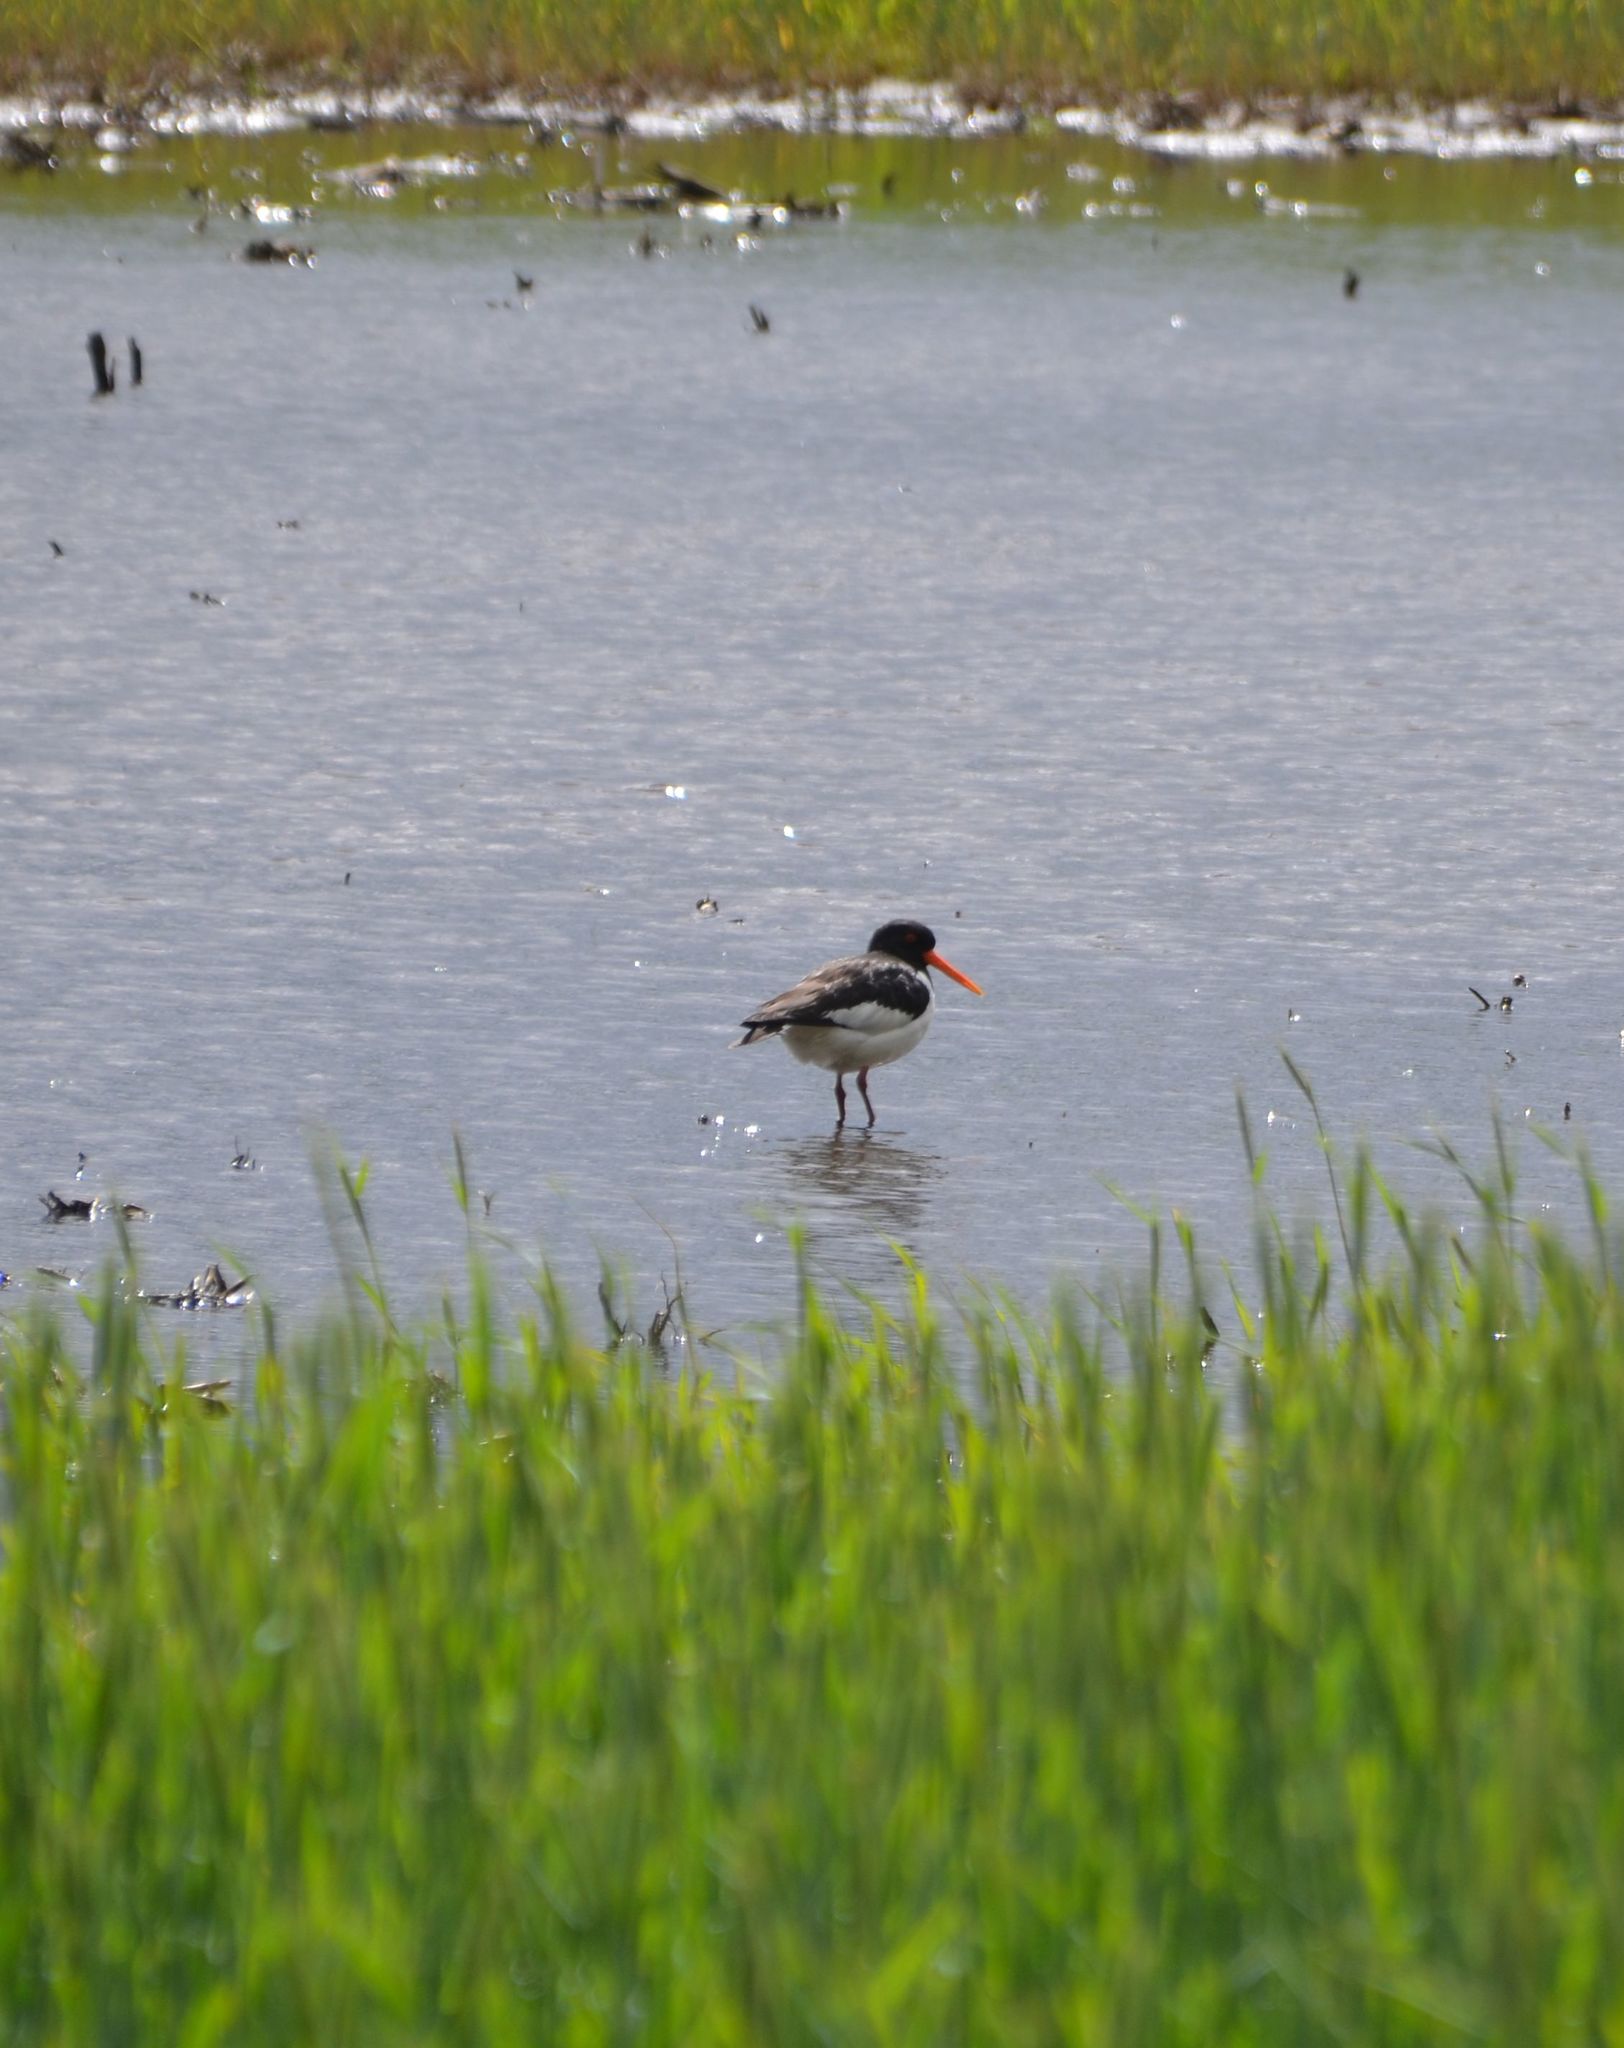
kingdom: Animalia
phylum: Chordata
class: Aves
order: Charadriiformes
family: Haematopodidae
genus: Haematopus
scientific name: Haematopus ostralegus
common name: Eurasian oystercatcher
